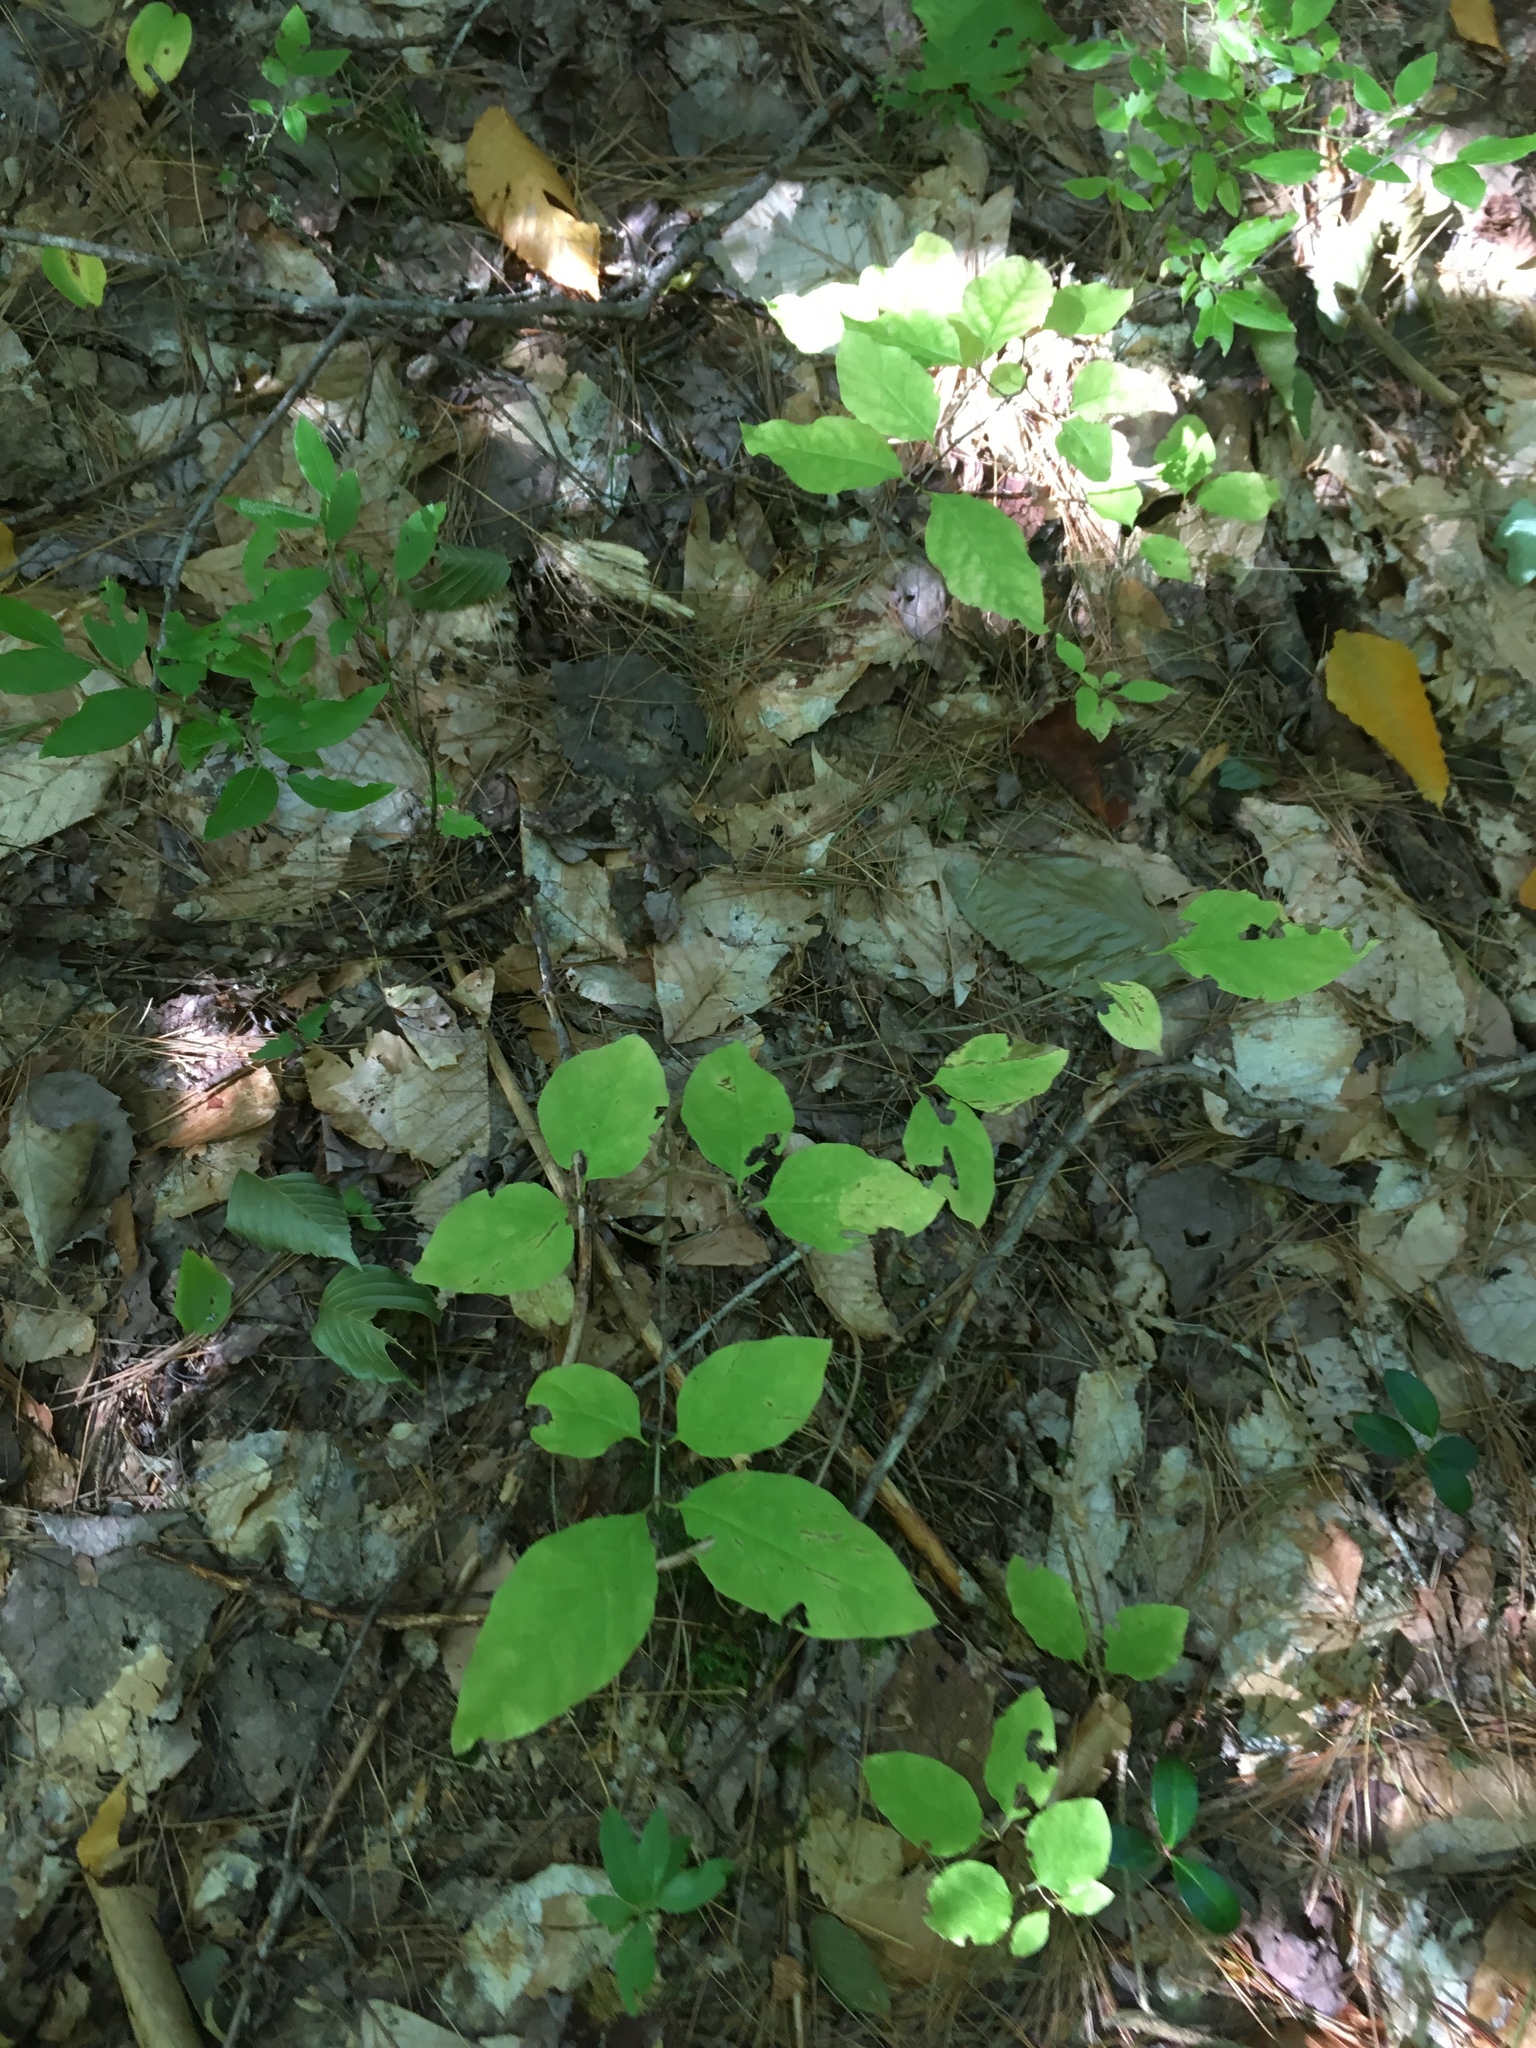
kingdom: Plantae
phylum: Tracheophyta
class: Magnoliopsida
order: Dipsacales
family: Caprifoliaceae
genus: Lonicera
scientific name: Lonicera canadensis
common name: American fly-honeysuckle
